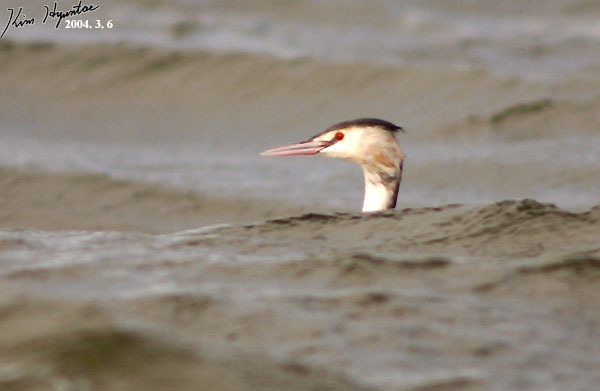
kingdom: Animalia
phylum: Chordata
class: Aves
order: Podicipediformes
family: Podicipedidae
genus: Podiceps
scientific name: Podiceps cristatus
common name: Great crested grebe
